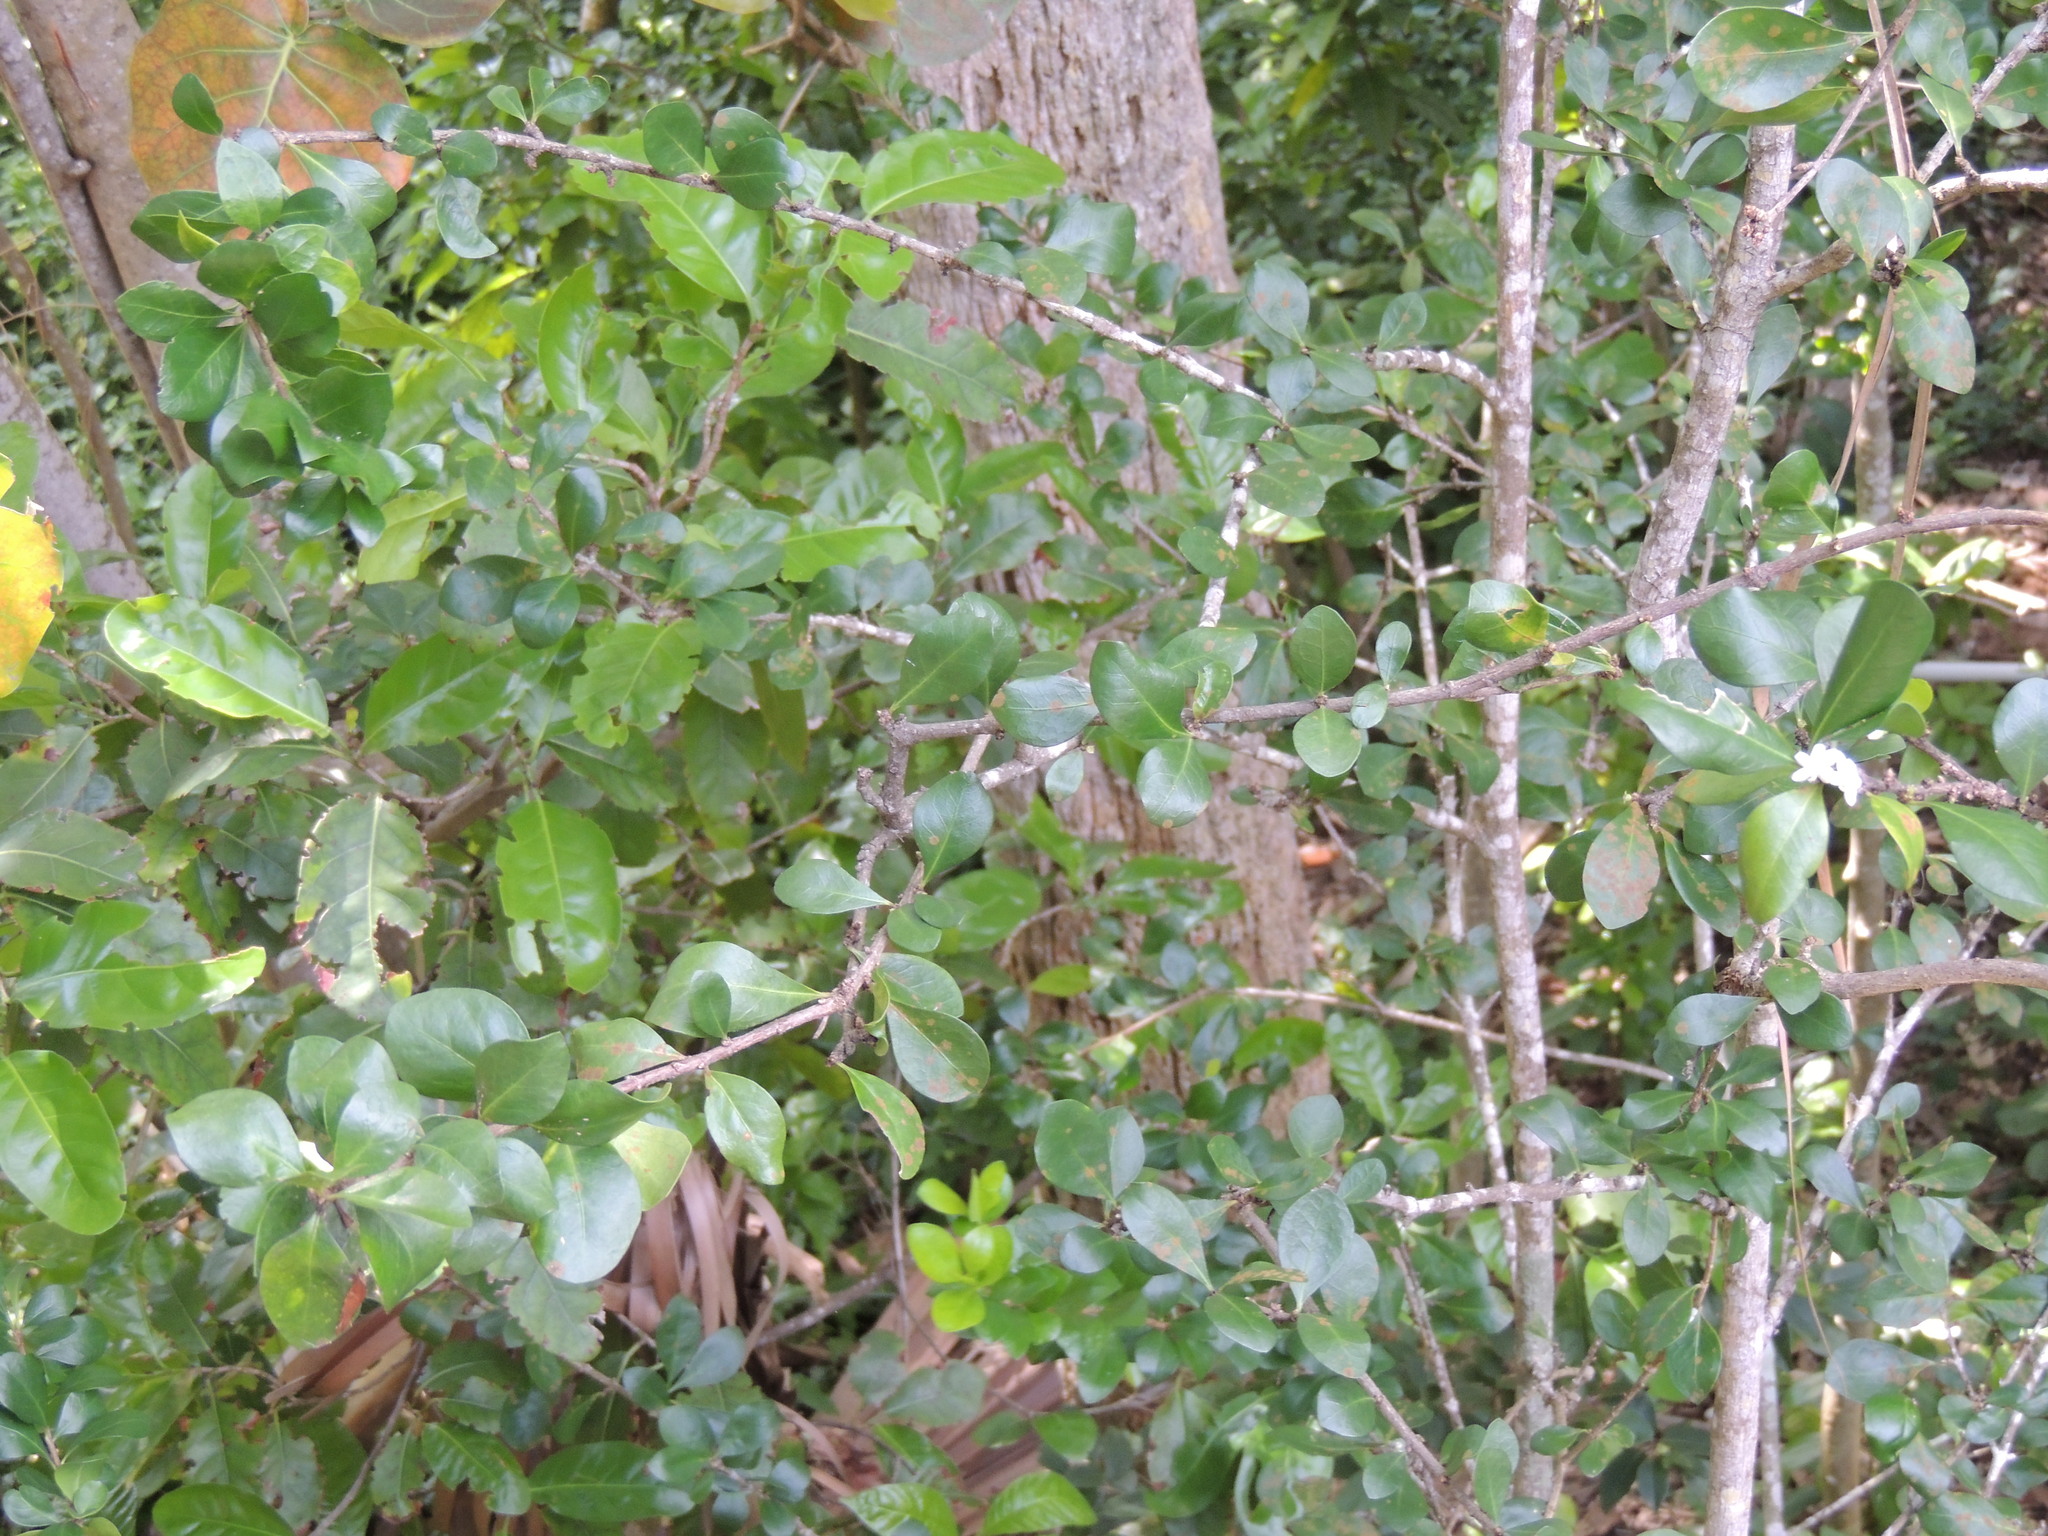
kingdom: Plantae
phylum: Tracheophyta
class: Magnoliopsida
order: Gentianales
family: Rubiaceae
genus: Randia
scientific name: Randia aculeata
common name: Inkberry
